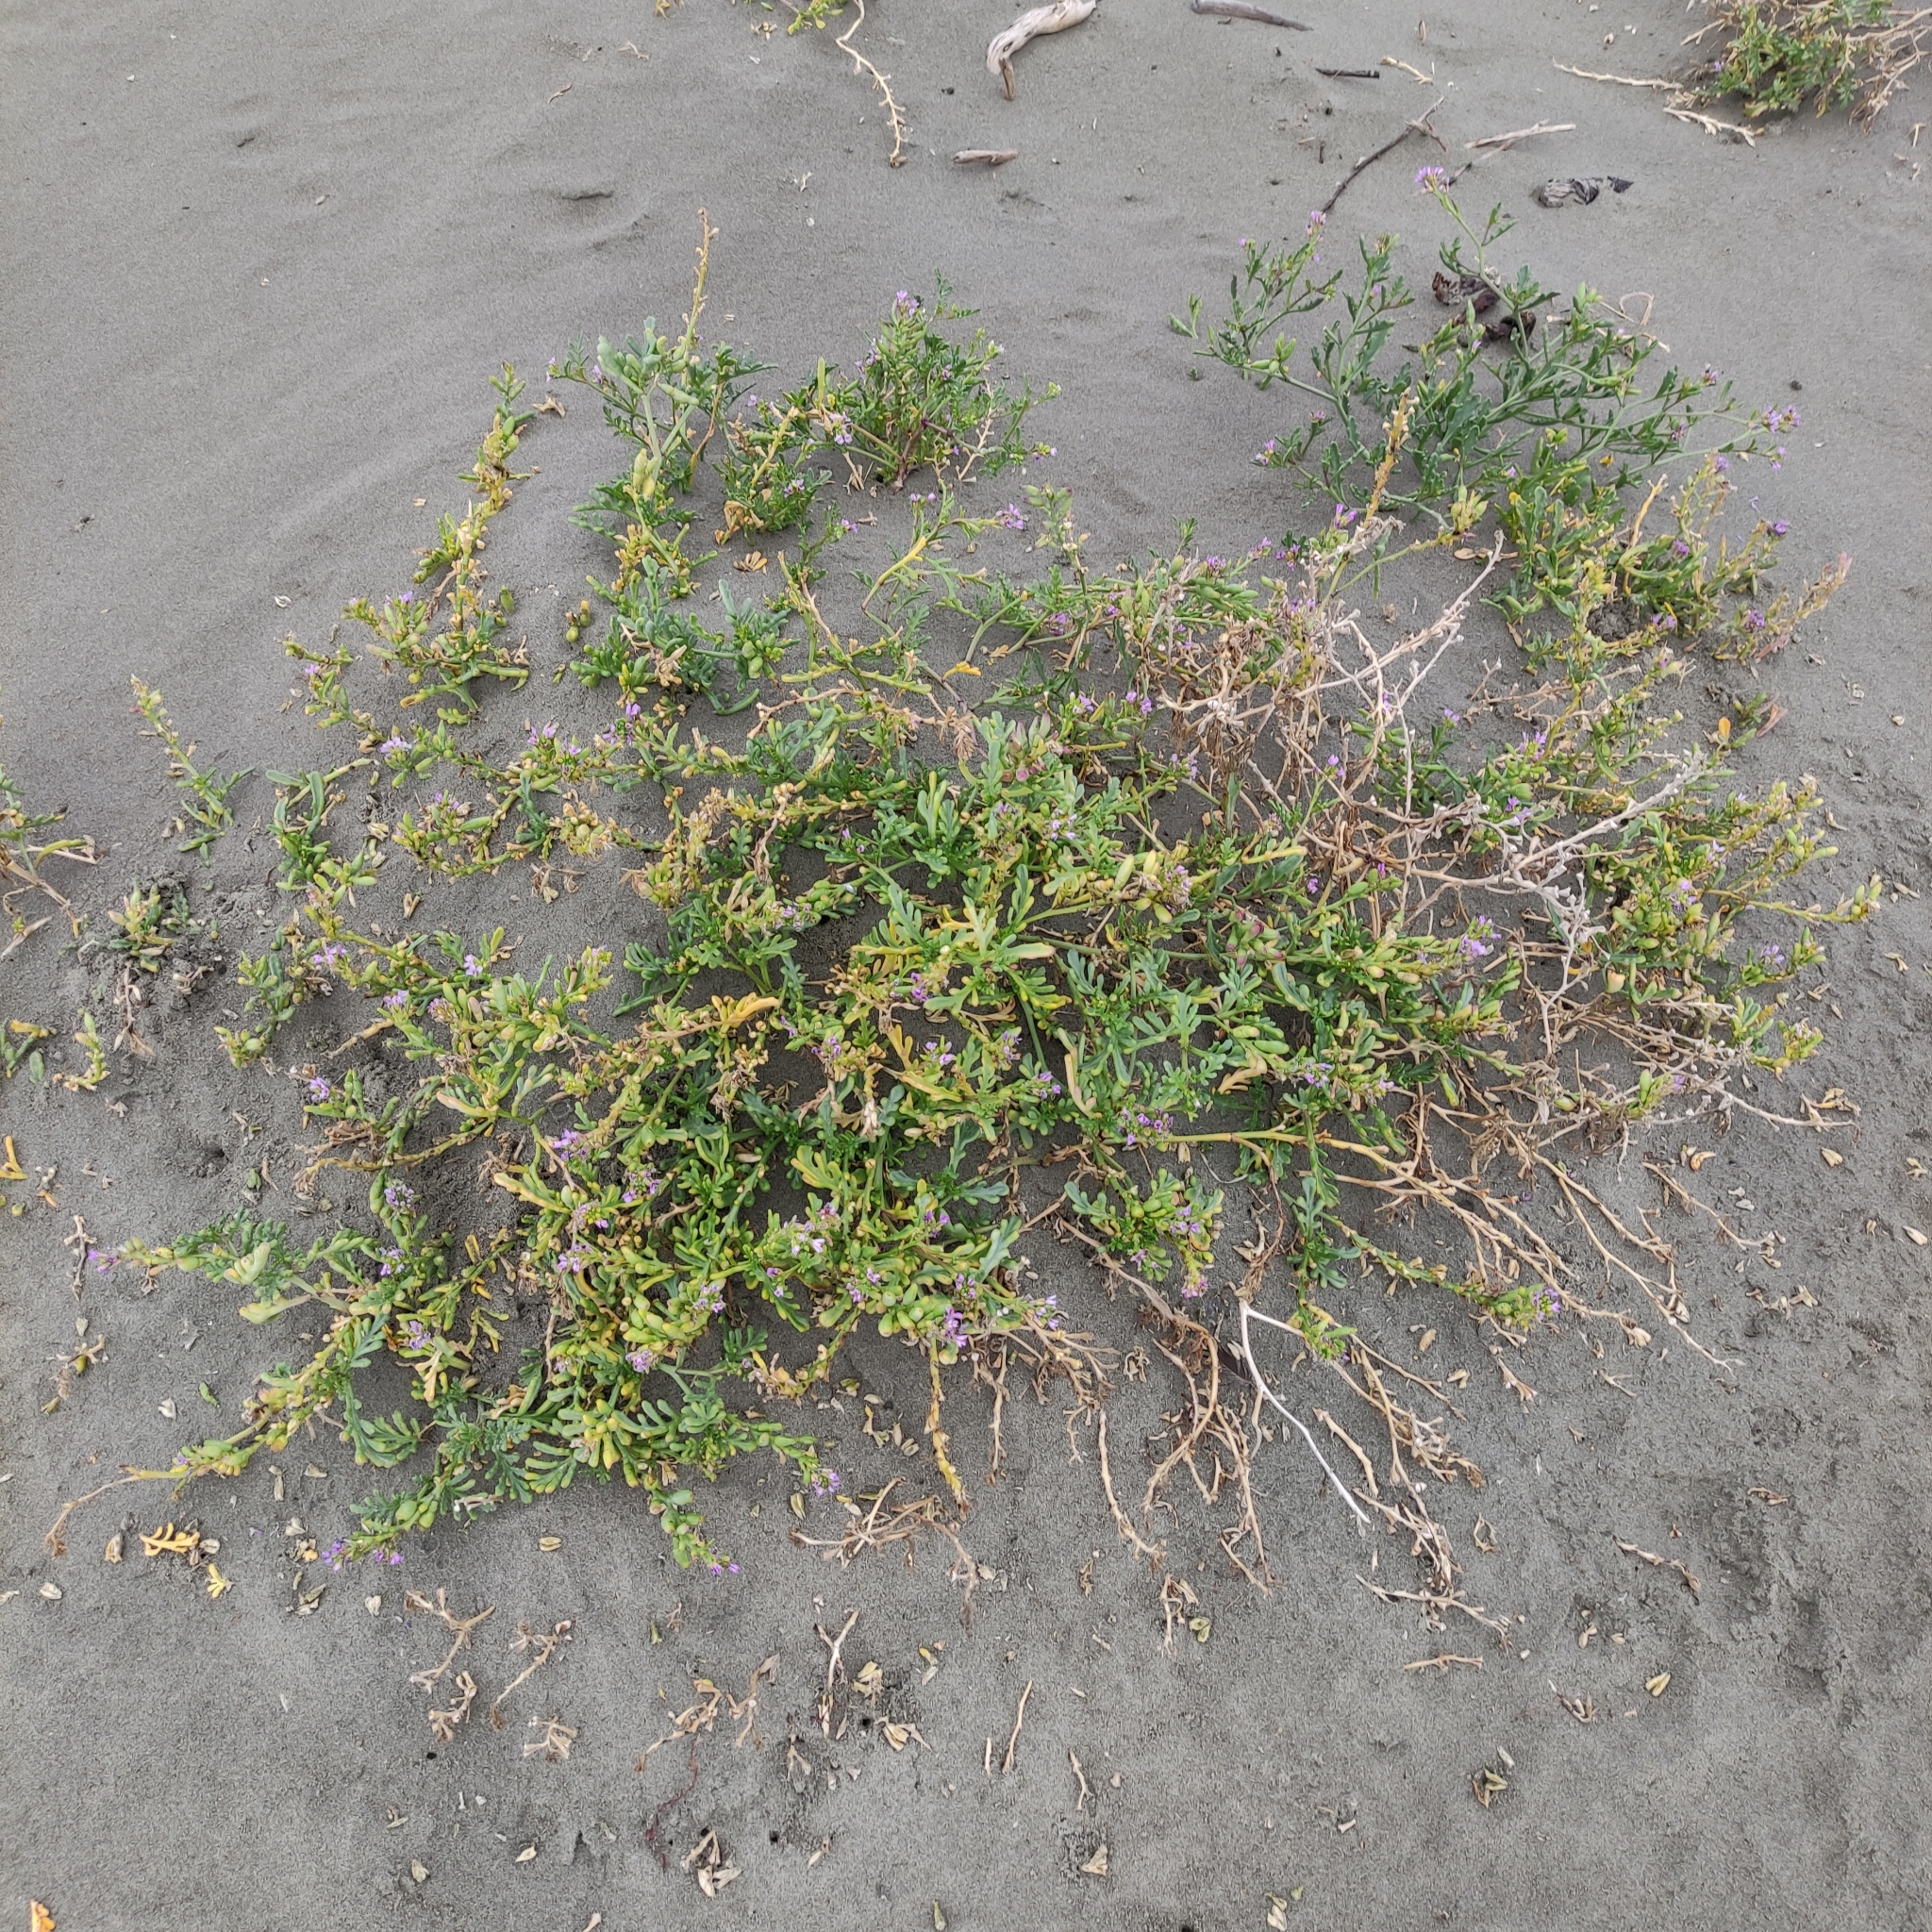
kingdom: Plantae
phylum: Tracheophyta
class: Magnoliopsida
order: Brassicales
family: Brassicaceae
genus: Cakile
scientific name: Cakile edentula
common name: American sea rocket
